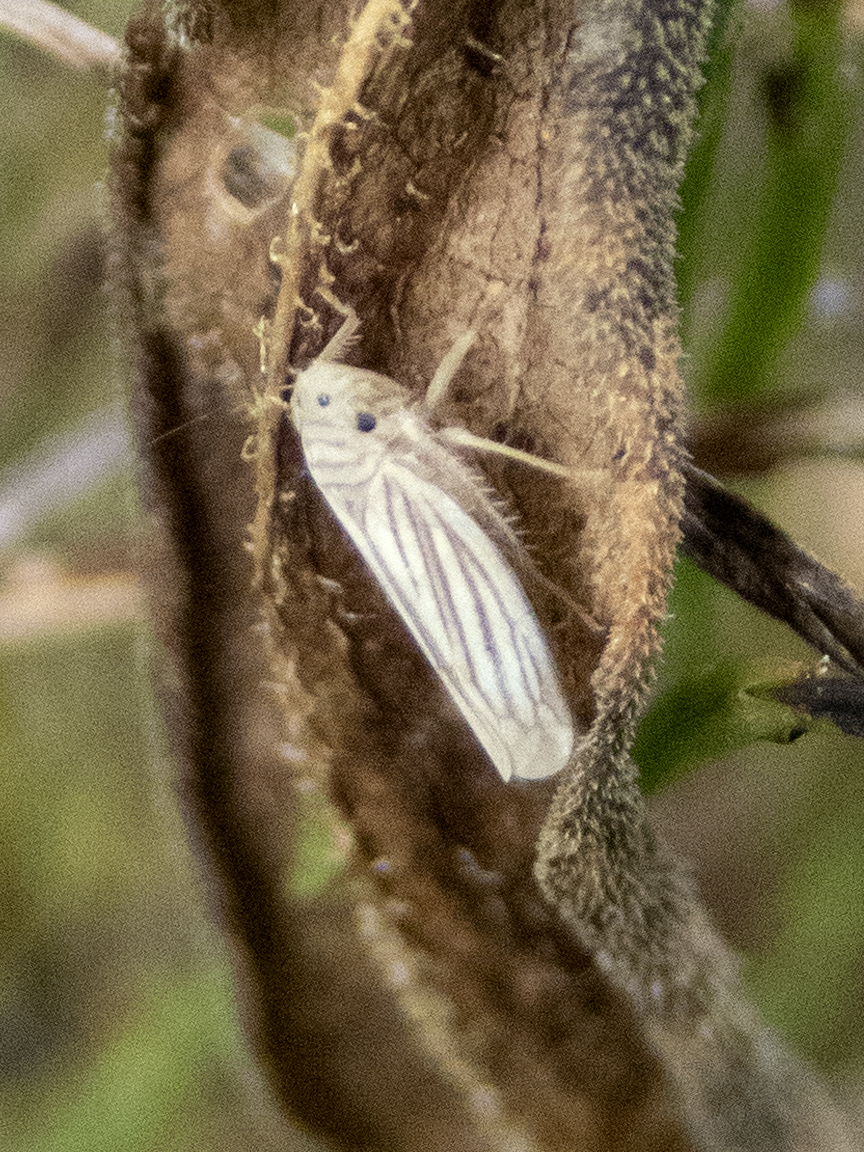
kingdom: Animalia
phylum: Arthropoda
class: Insecta
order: Hemiptera
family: Cicadellidae
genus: Provancherana
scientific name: Provancherana tripunctata
